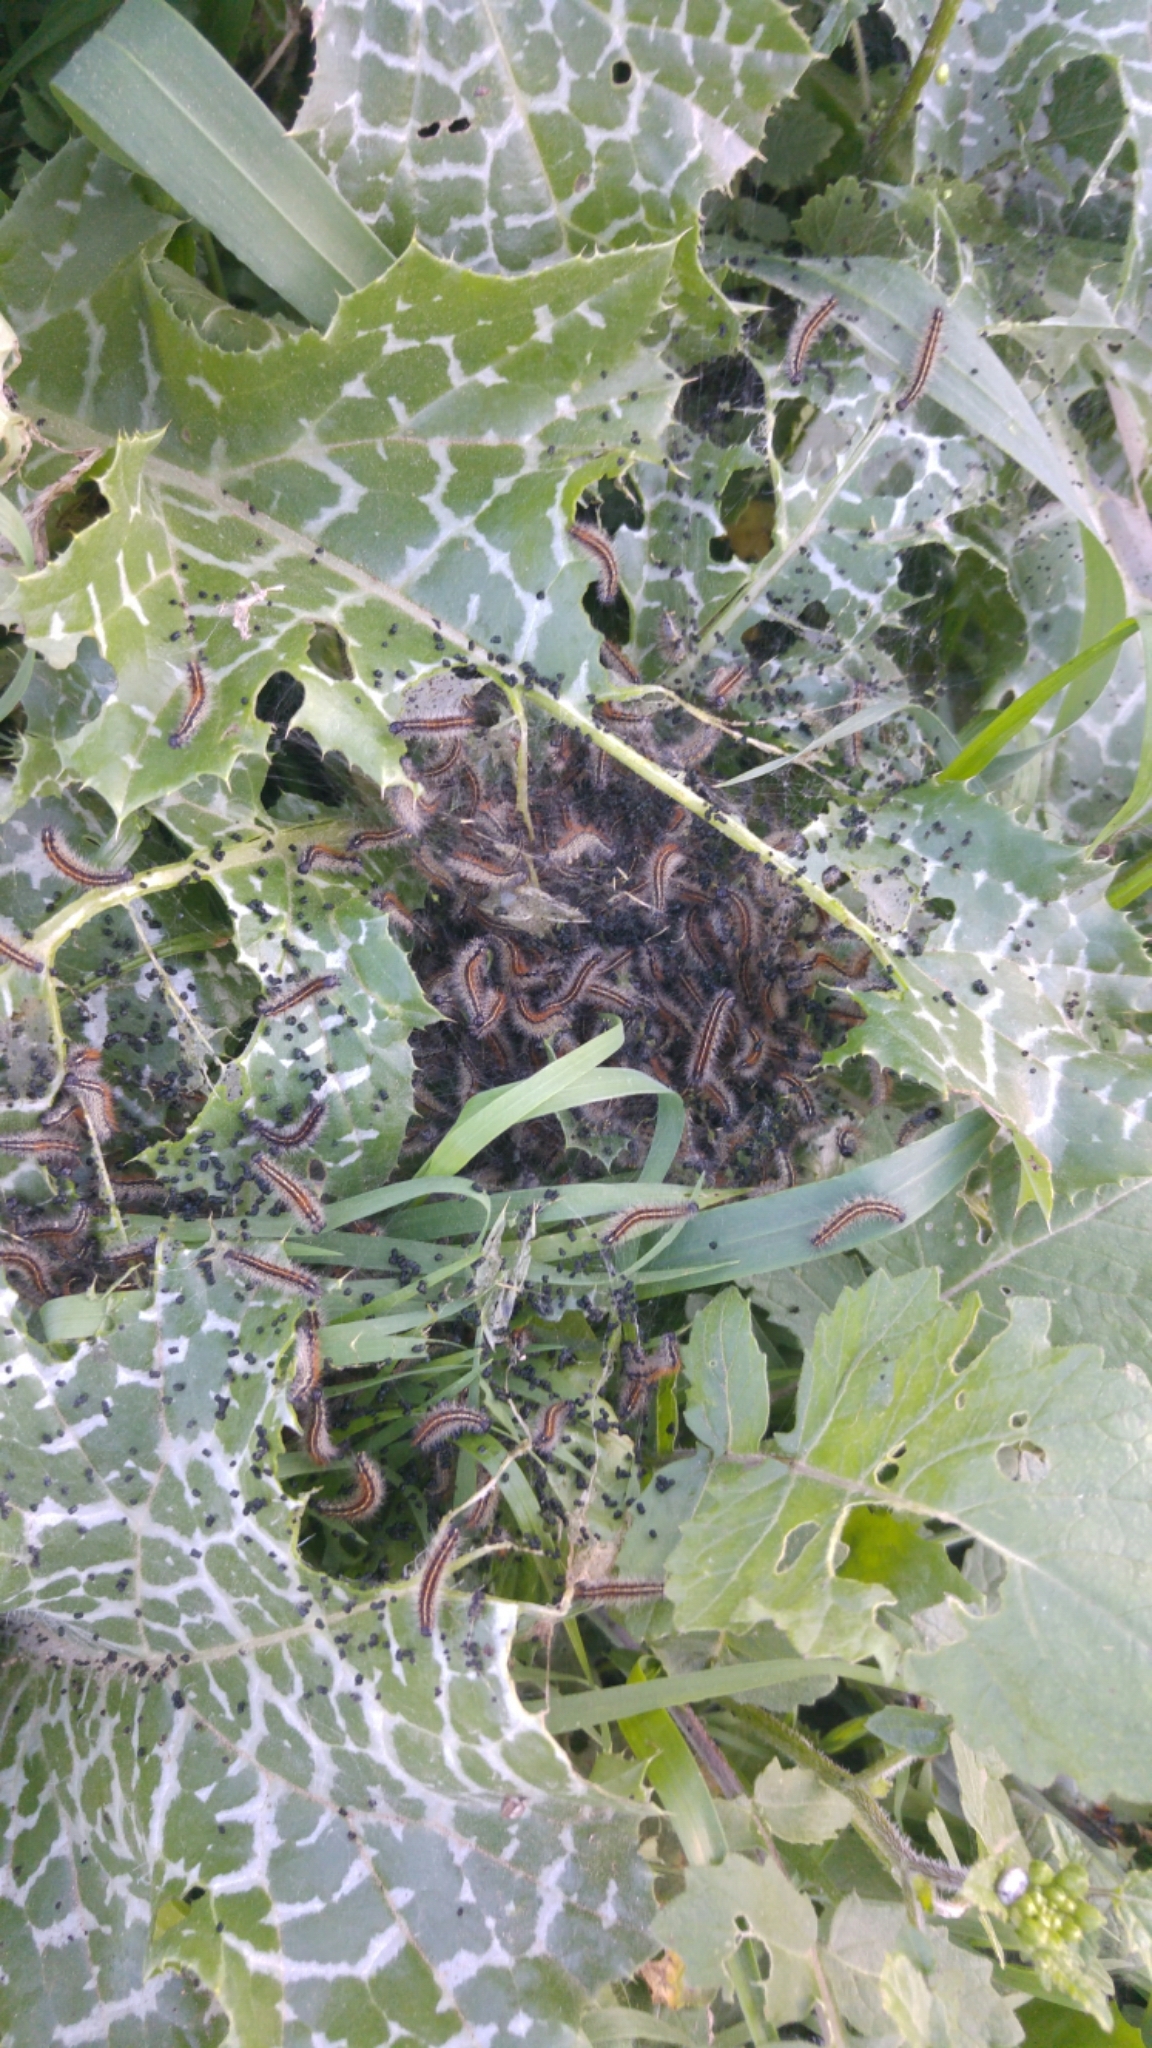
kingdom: Animalia
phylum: Arthropoda
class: Insecta
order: Lepidoptera
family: Erebidae
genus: Ocnogyna
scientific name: Ocnogyna loewii
